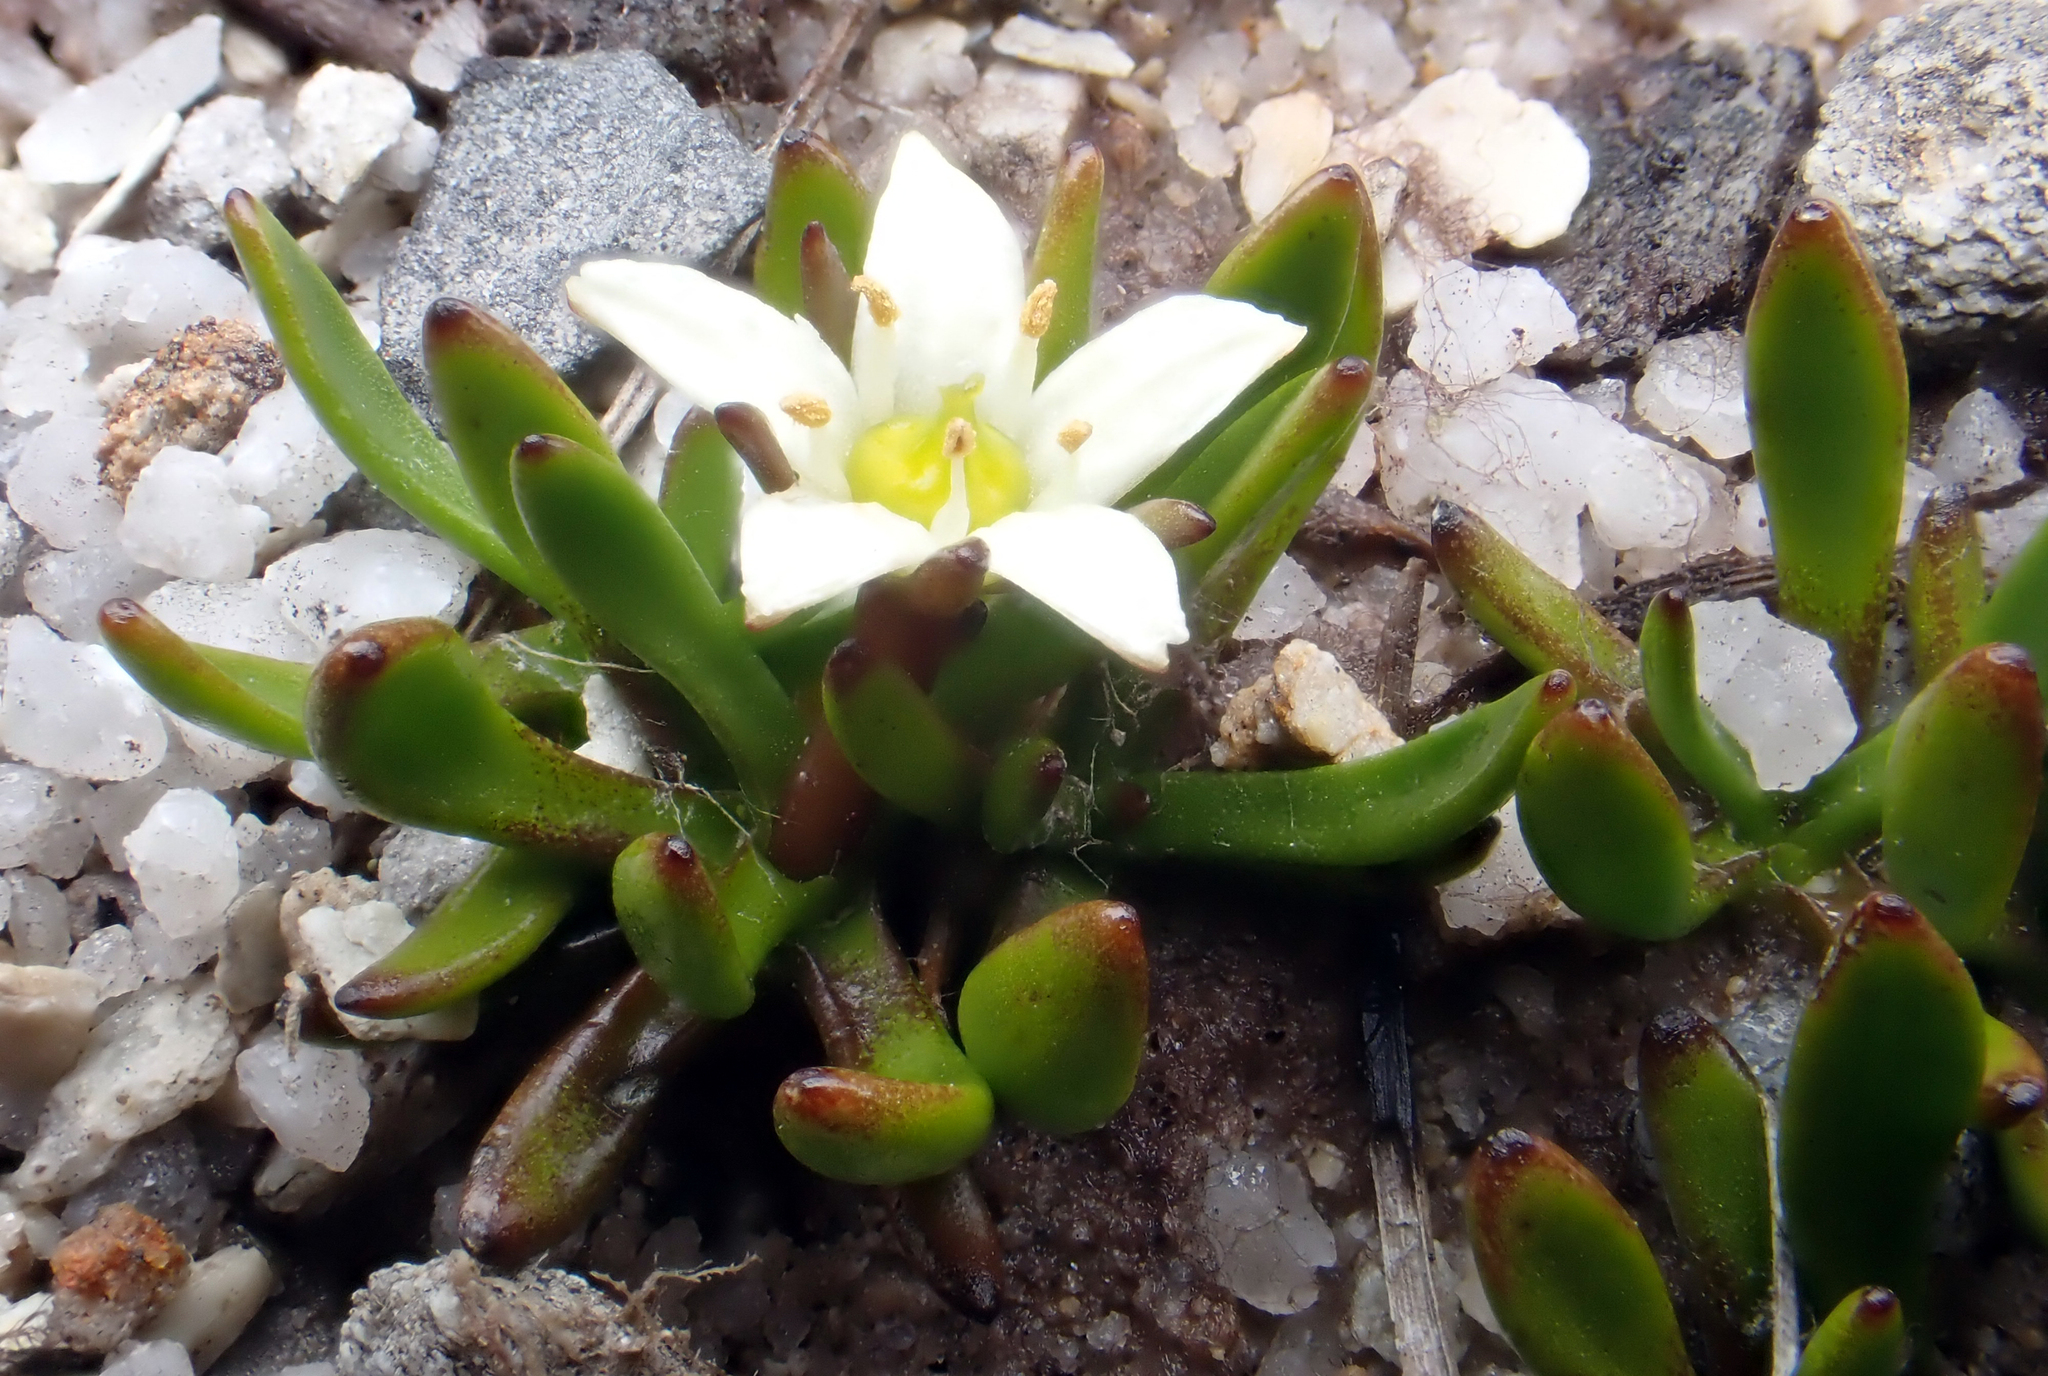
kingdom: Plantae
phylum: Tracheophyta
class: Magnoliopsida
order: Asterales
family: Menyanthaceae
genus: Liparophyllum
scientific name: Liparophyllum gunnii
